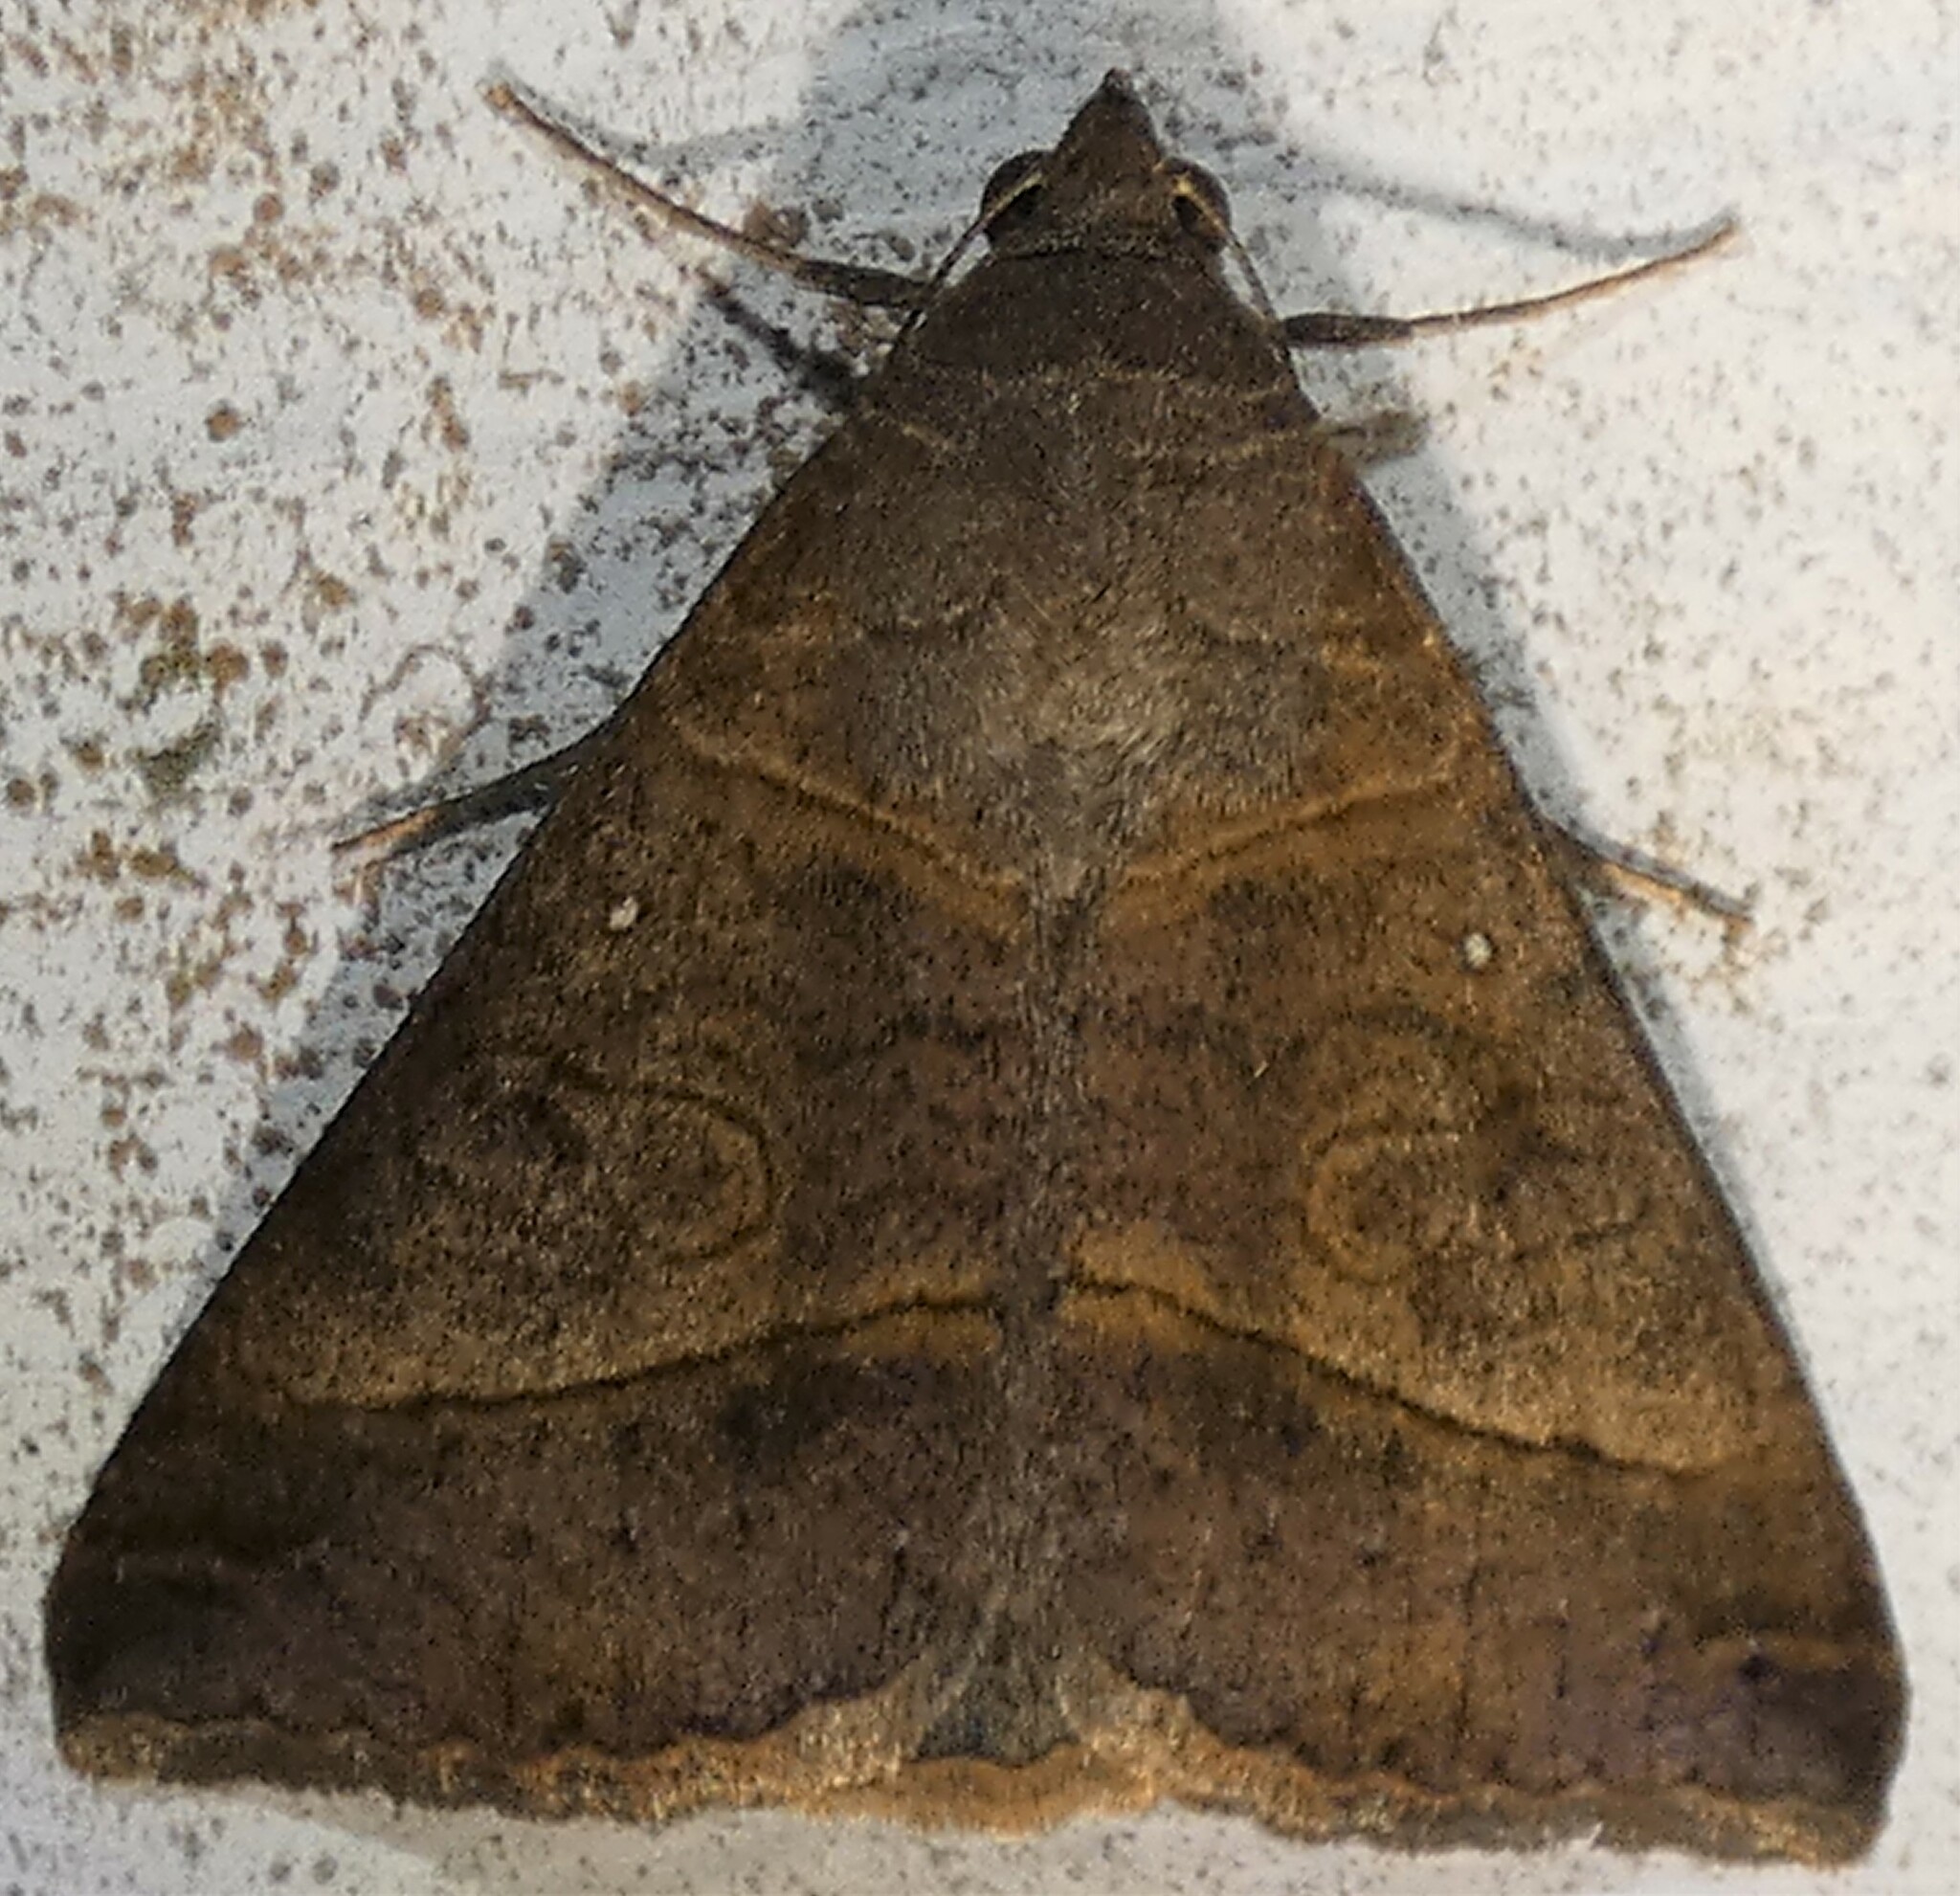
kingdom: Animalia
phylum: Arthropoda
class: Insecta
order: Lepidoptera
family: Erebidae
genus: Mocis
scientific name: Mocis latipes
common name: Striped grass looper
